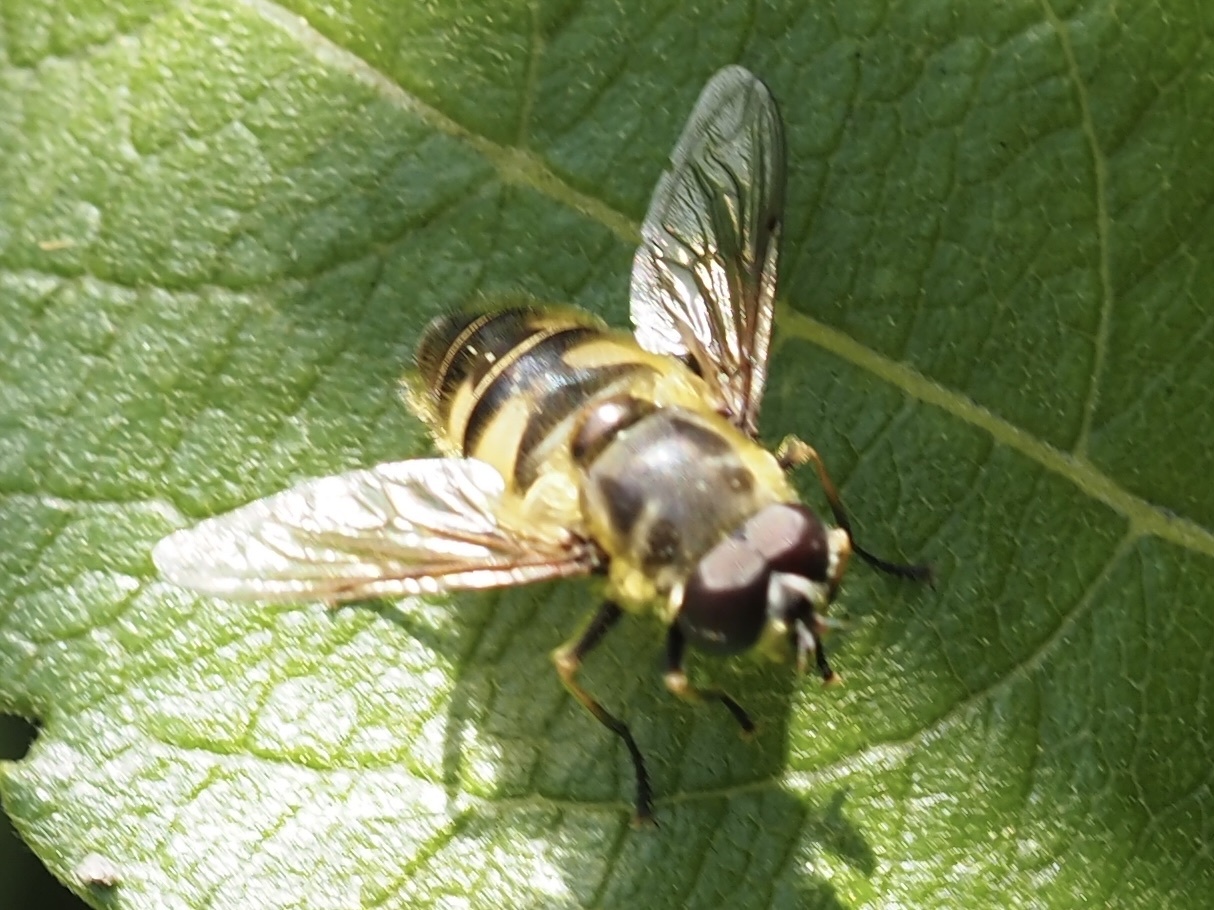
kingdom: Animalia
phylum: Arthropoda
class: Insecta
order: Diptera
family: Syrphidae
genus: Myathropa
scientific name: Myathropa florea
